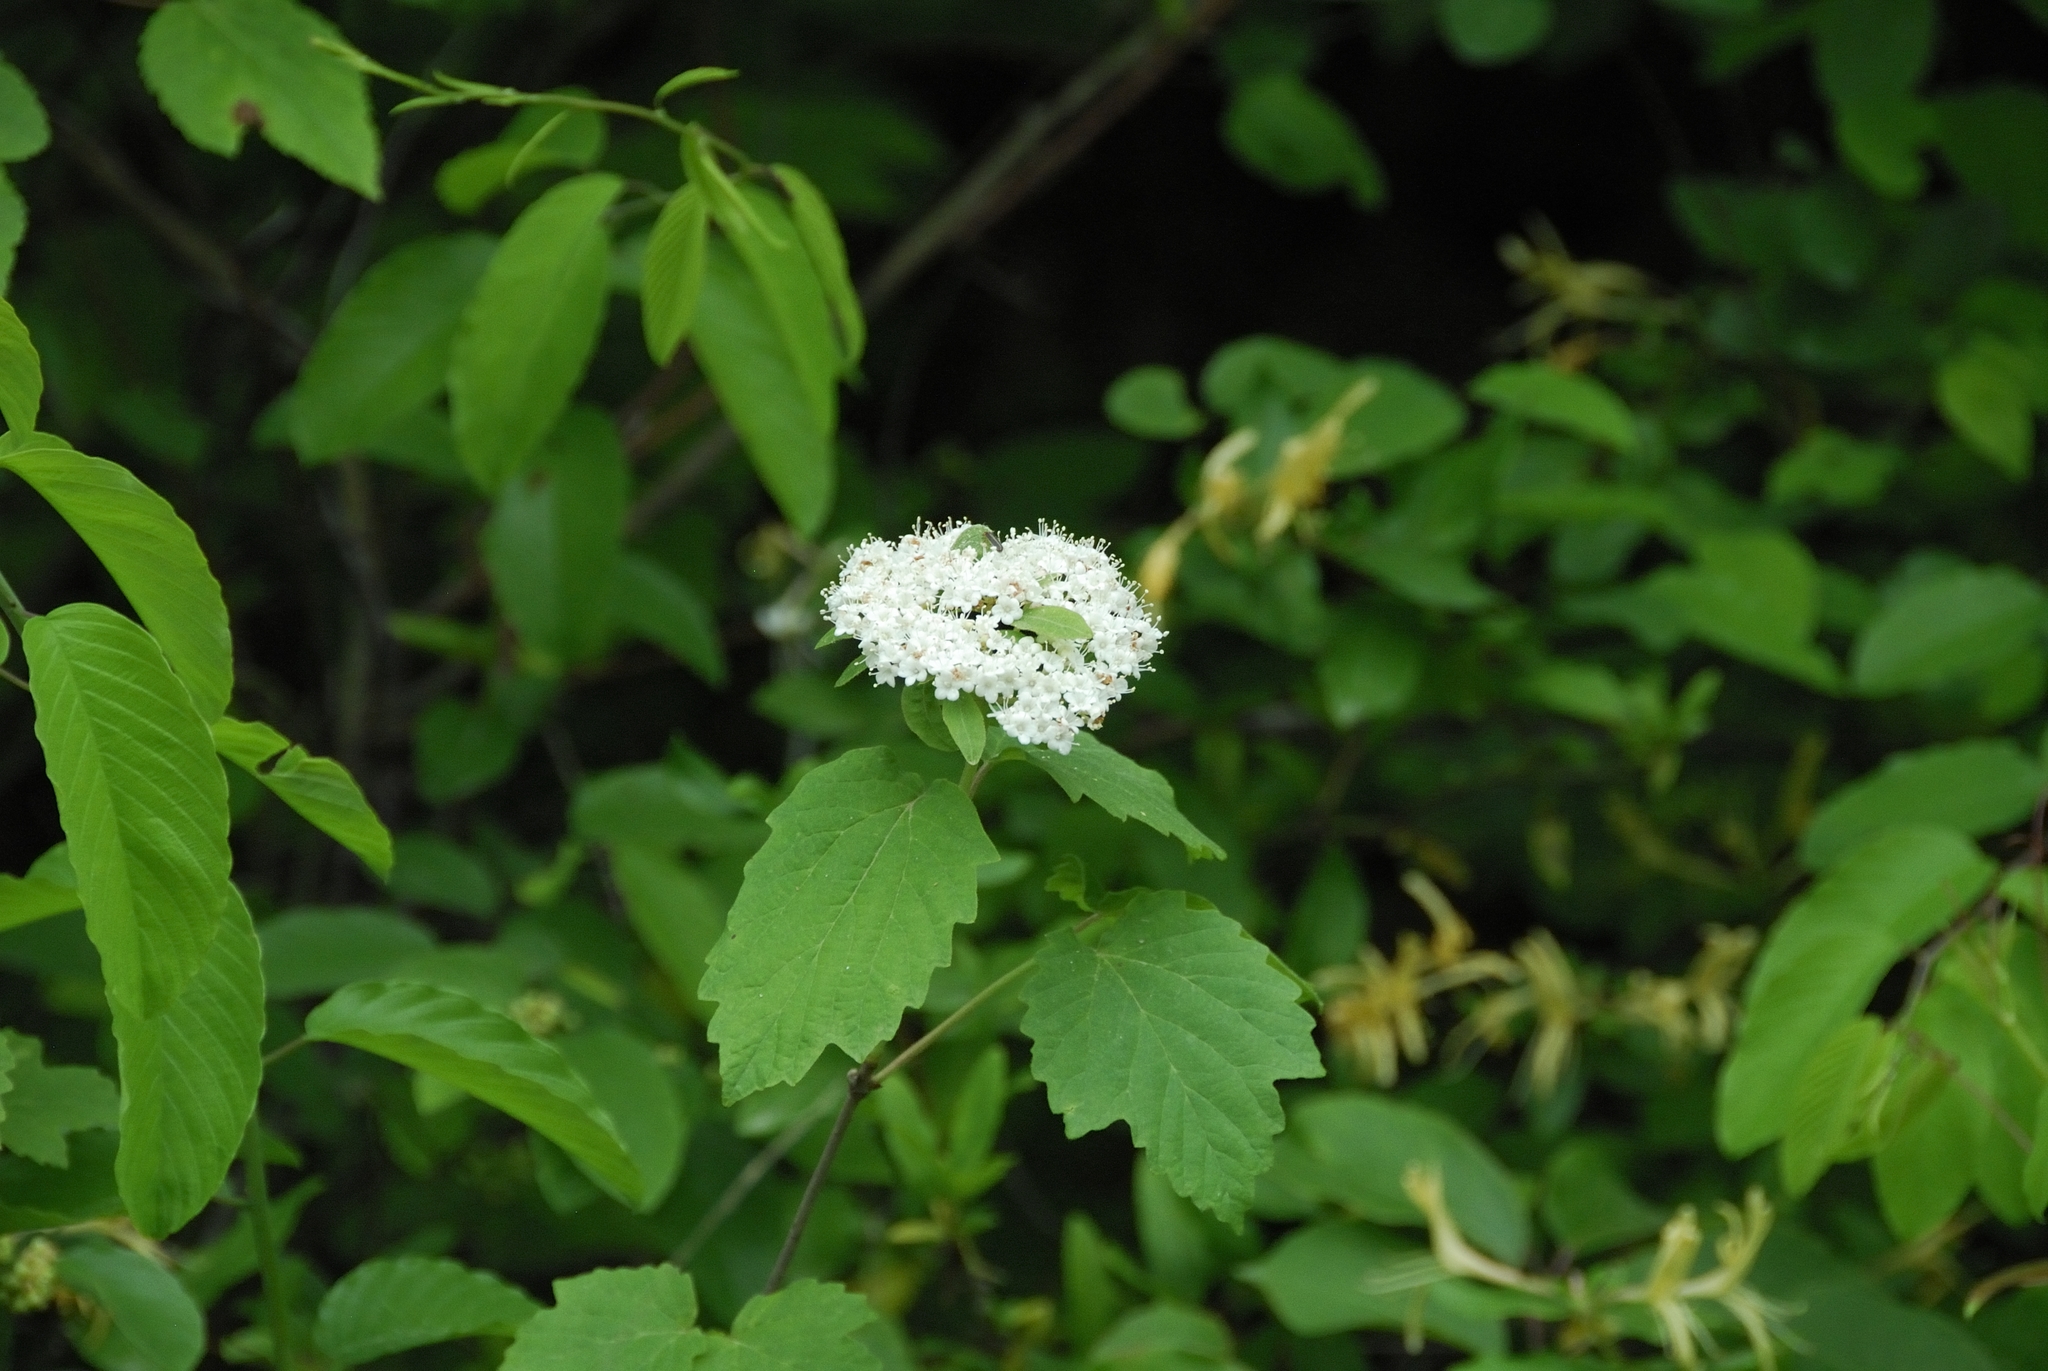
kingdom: Plantae
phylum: Tracheophyta
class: Magnoliopsida
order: Dipsacales
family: Viburnaceae
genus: Viburnum
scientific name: Viburnum acerifolium
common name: Dockmackie
